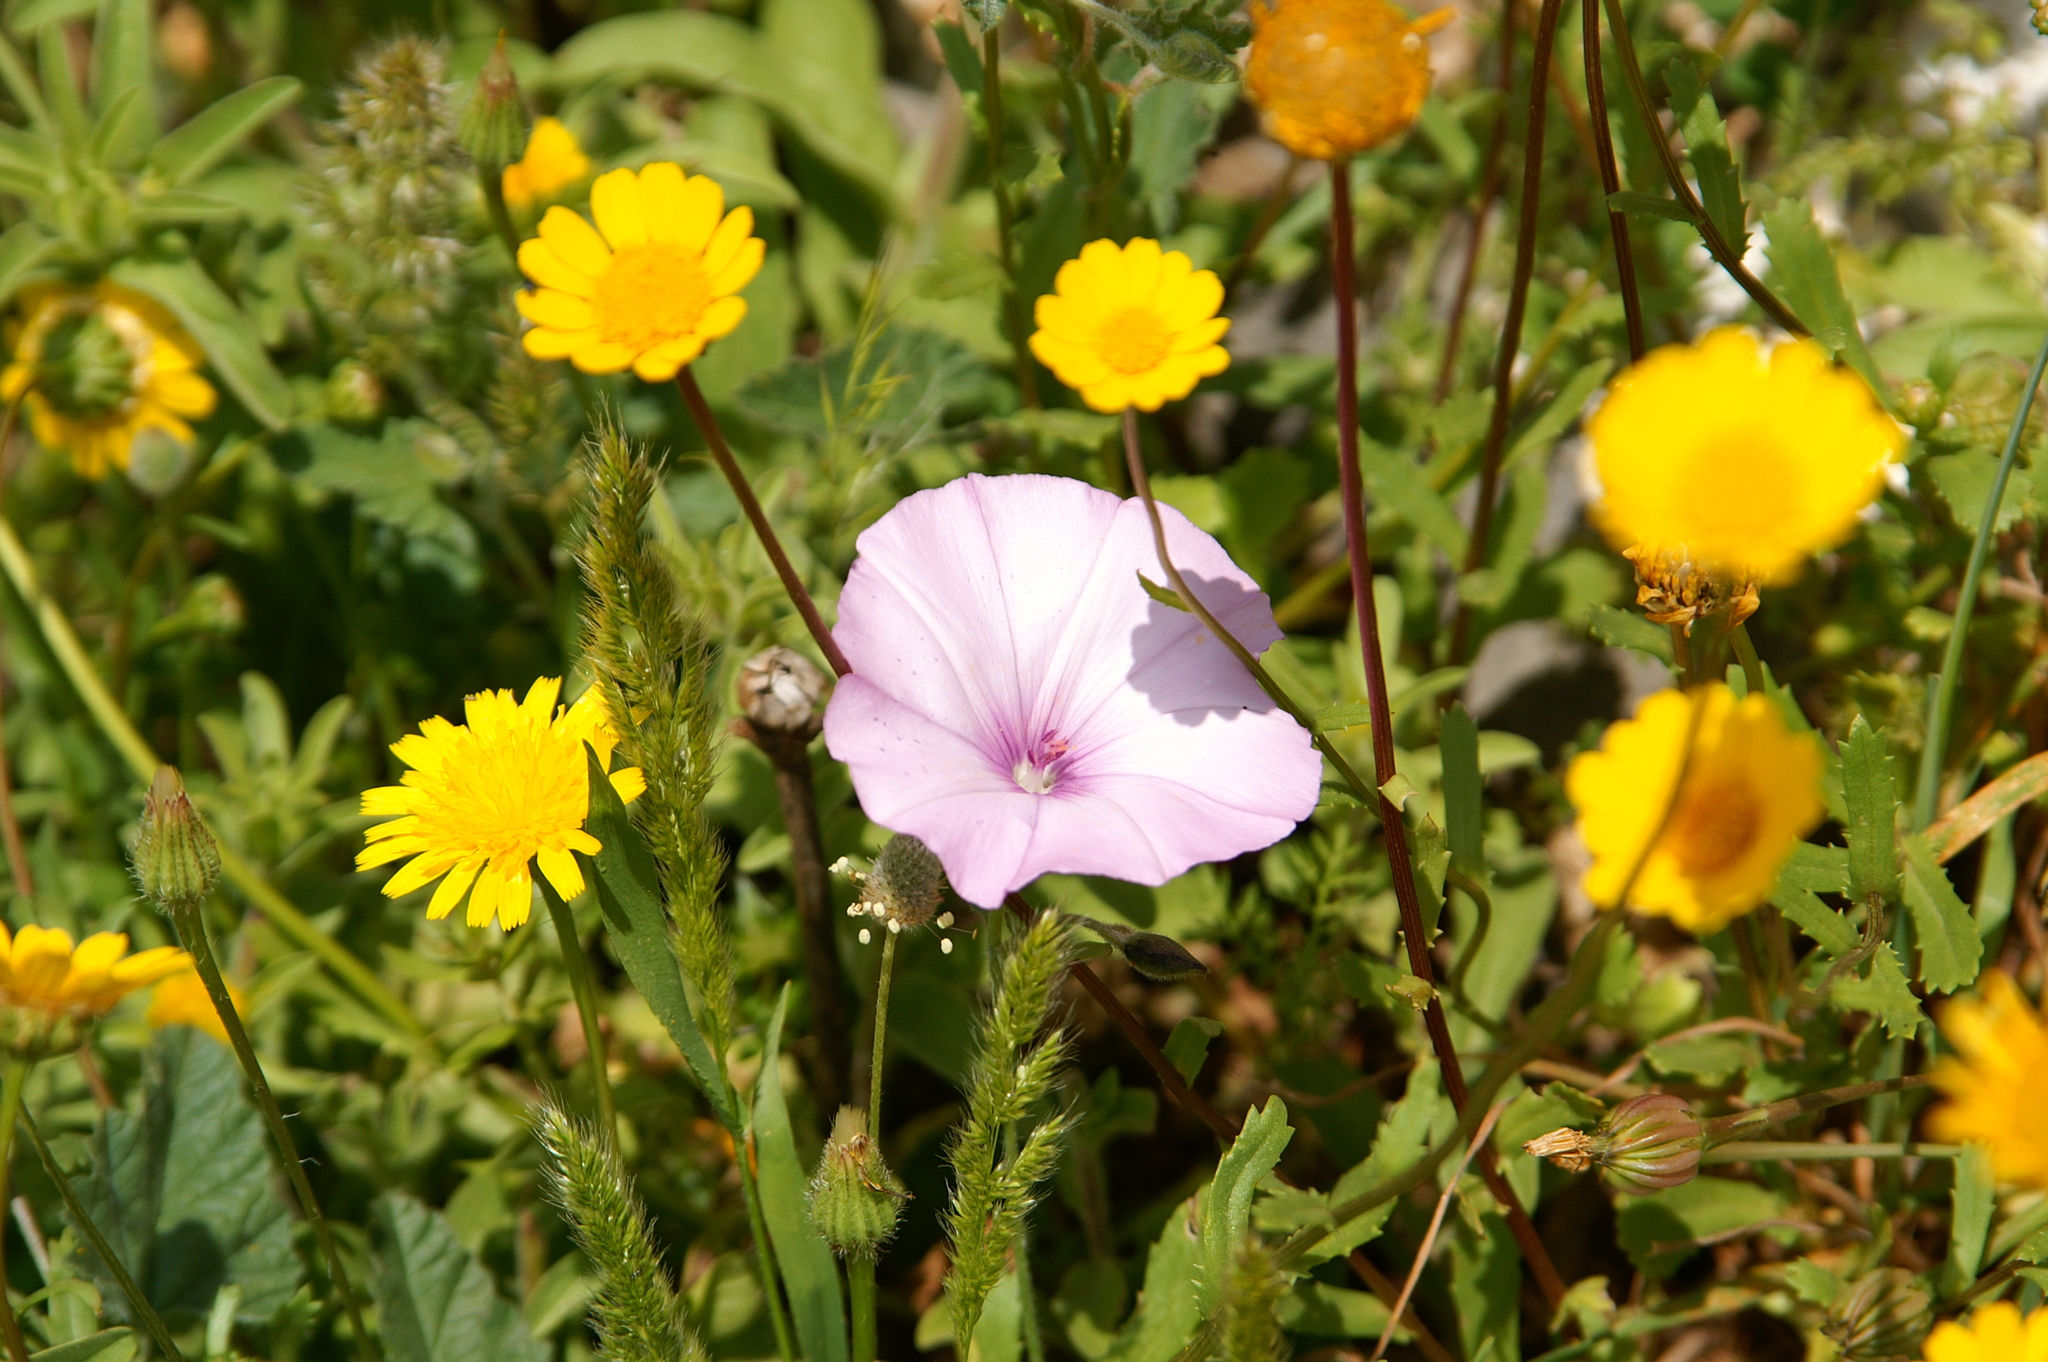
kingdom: Plantae
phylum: Tracheophyta
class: Magnoliopsida
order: Solanales
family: Convolvulaceae
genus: Convolvulus
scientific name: Convolvulus althaeoides
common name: Mallow bindweed
